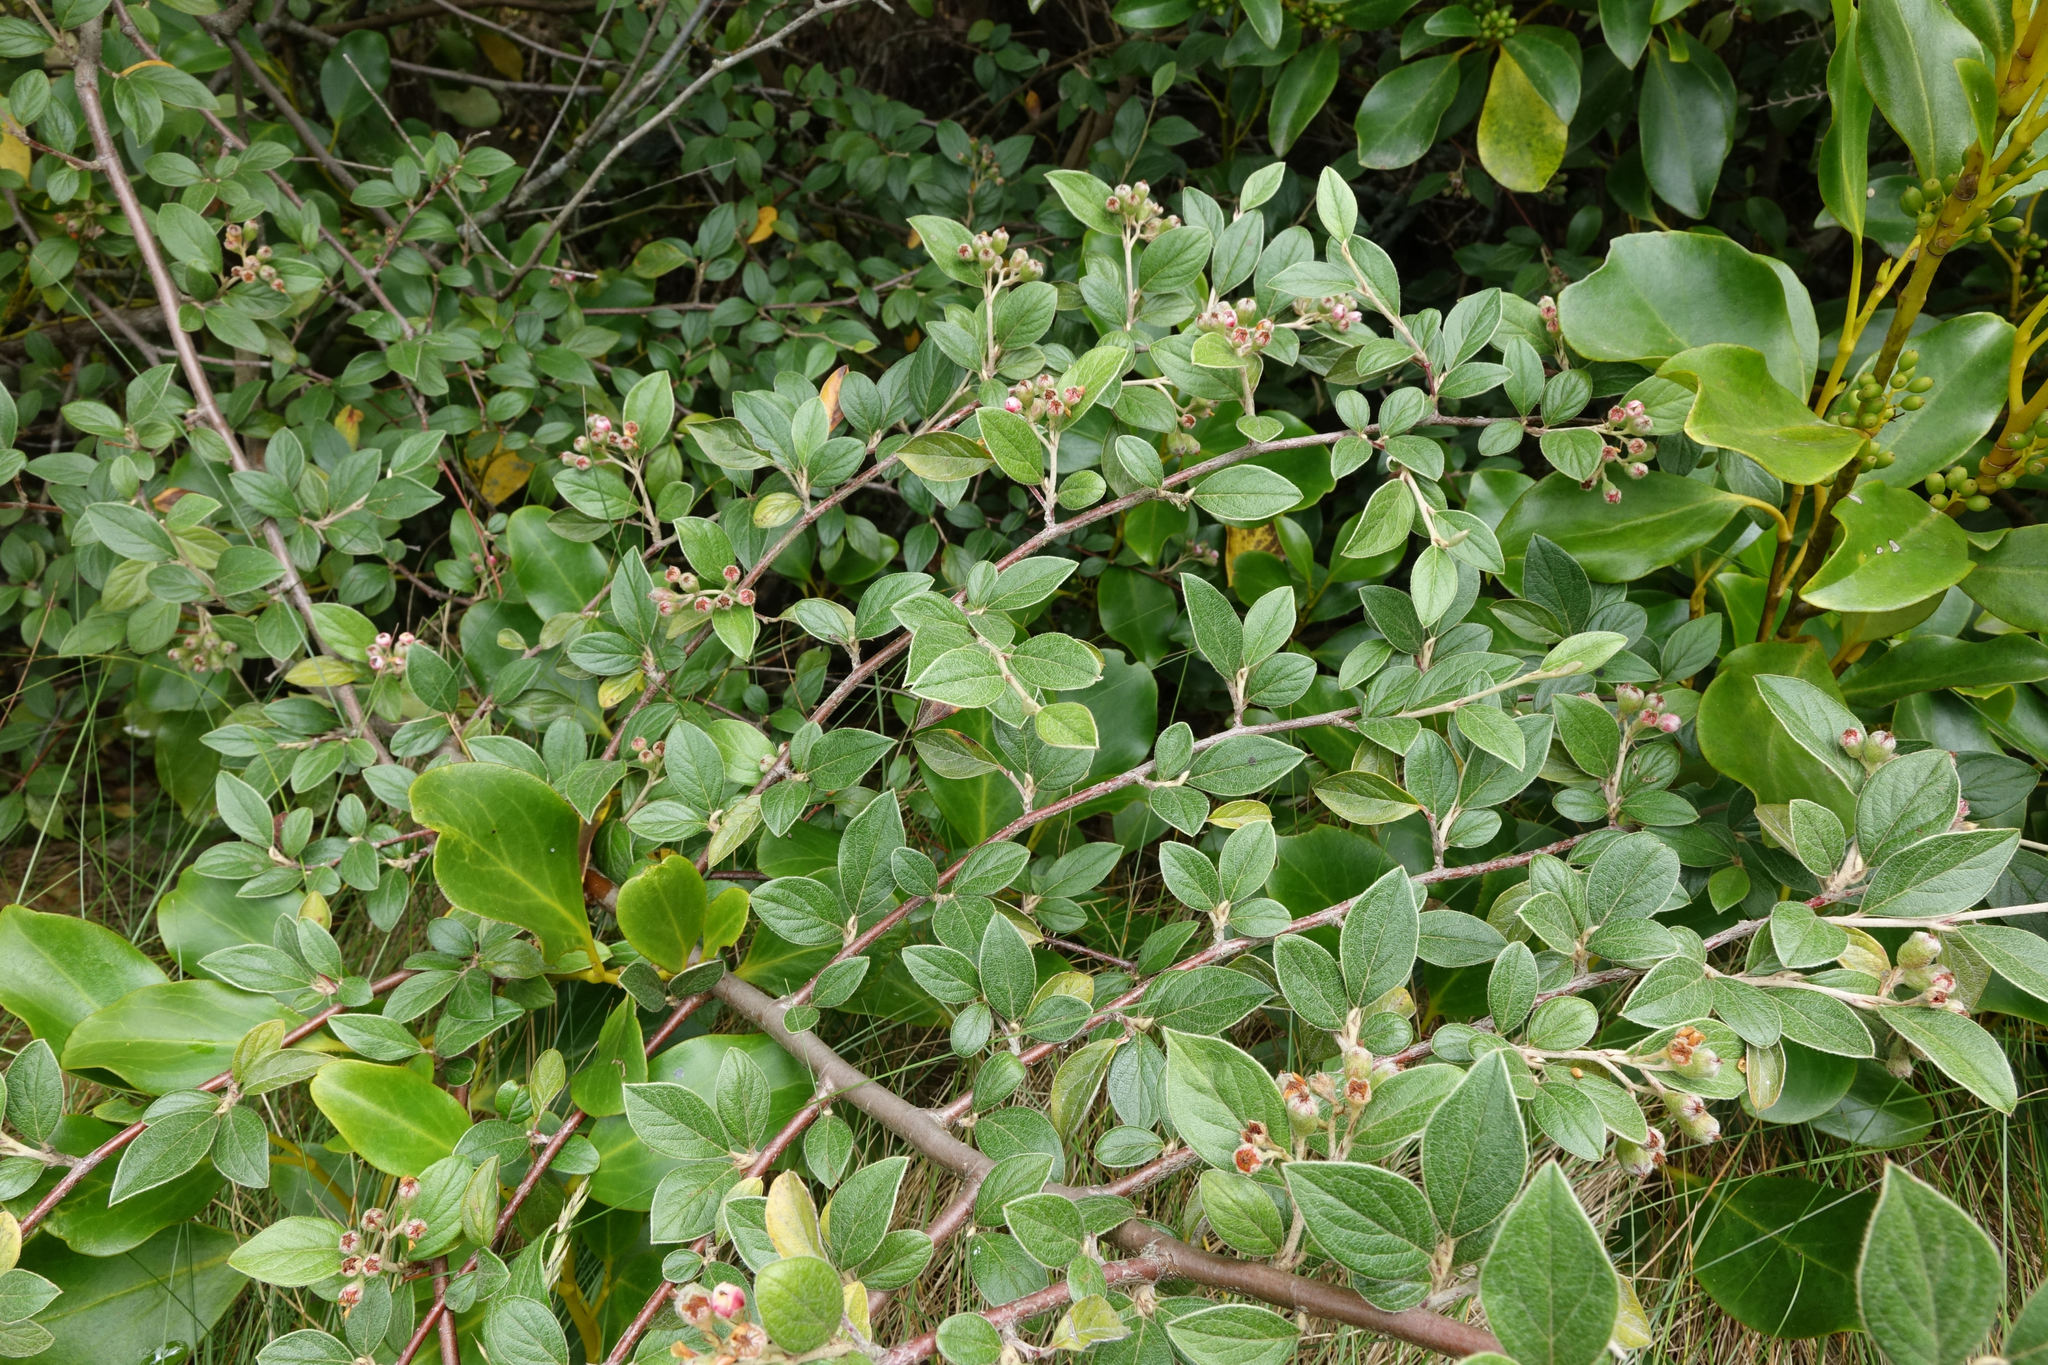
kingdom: Plantae
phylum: Tracheophyta
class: Magnoliopsida
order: Rosales
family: Rosaceae
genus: Cotoneaster
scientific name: Cotoneaster franchetii
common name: Franchet's cotoneaster
